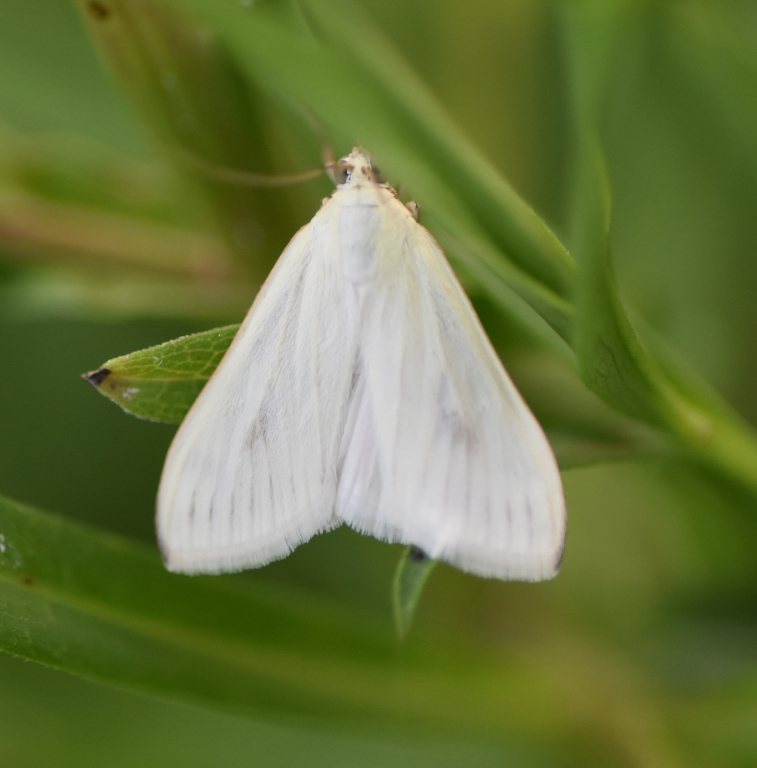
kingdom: Animalia
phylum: Arthropoda
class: Insecta
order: Lepidoptera
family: Crambidae
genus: Sitochroa
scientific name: Sitochroa palealis
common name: Greenish-yellow sitochroa moth
